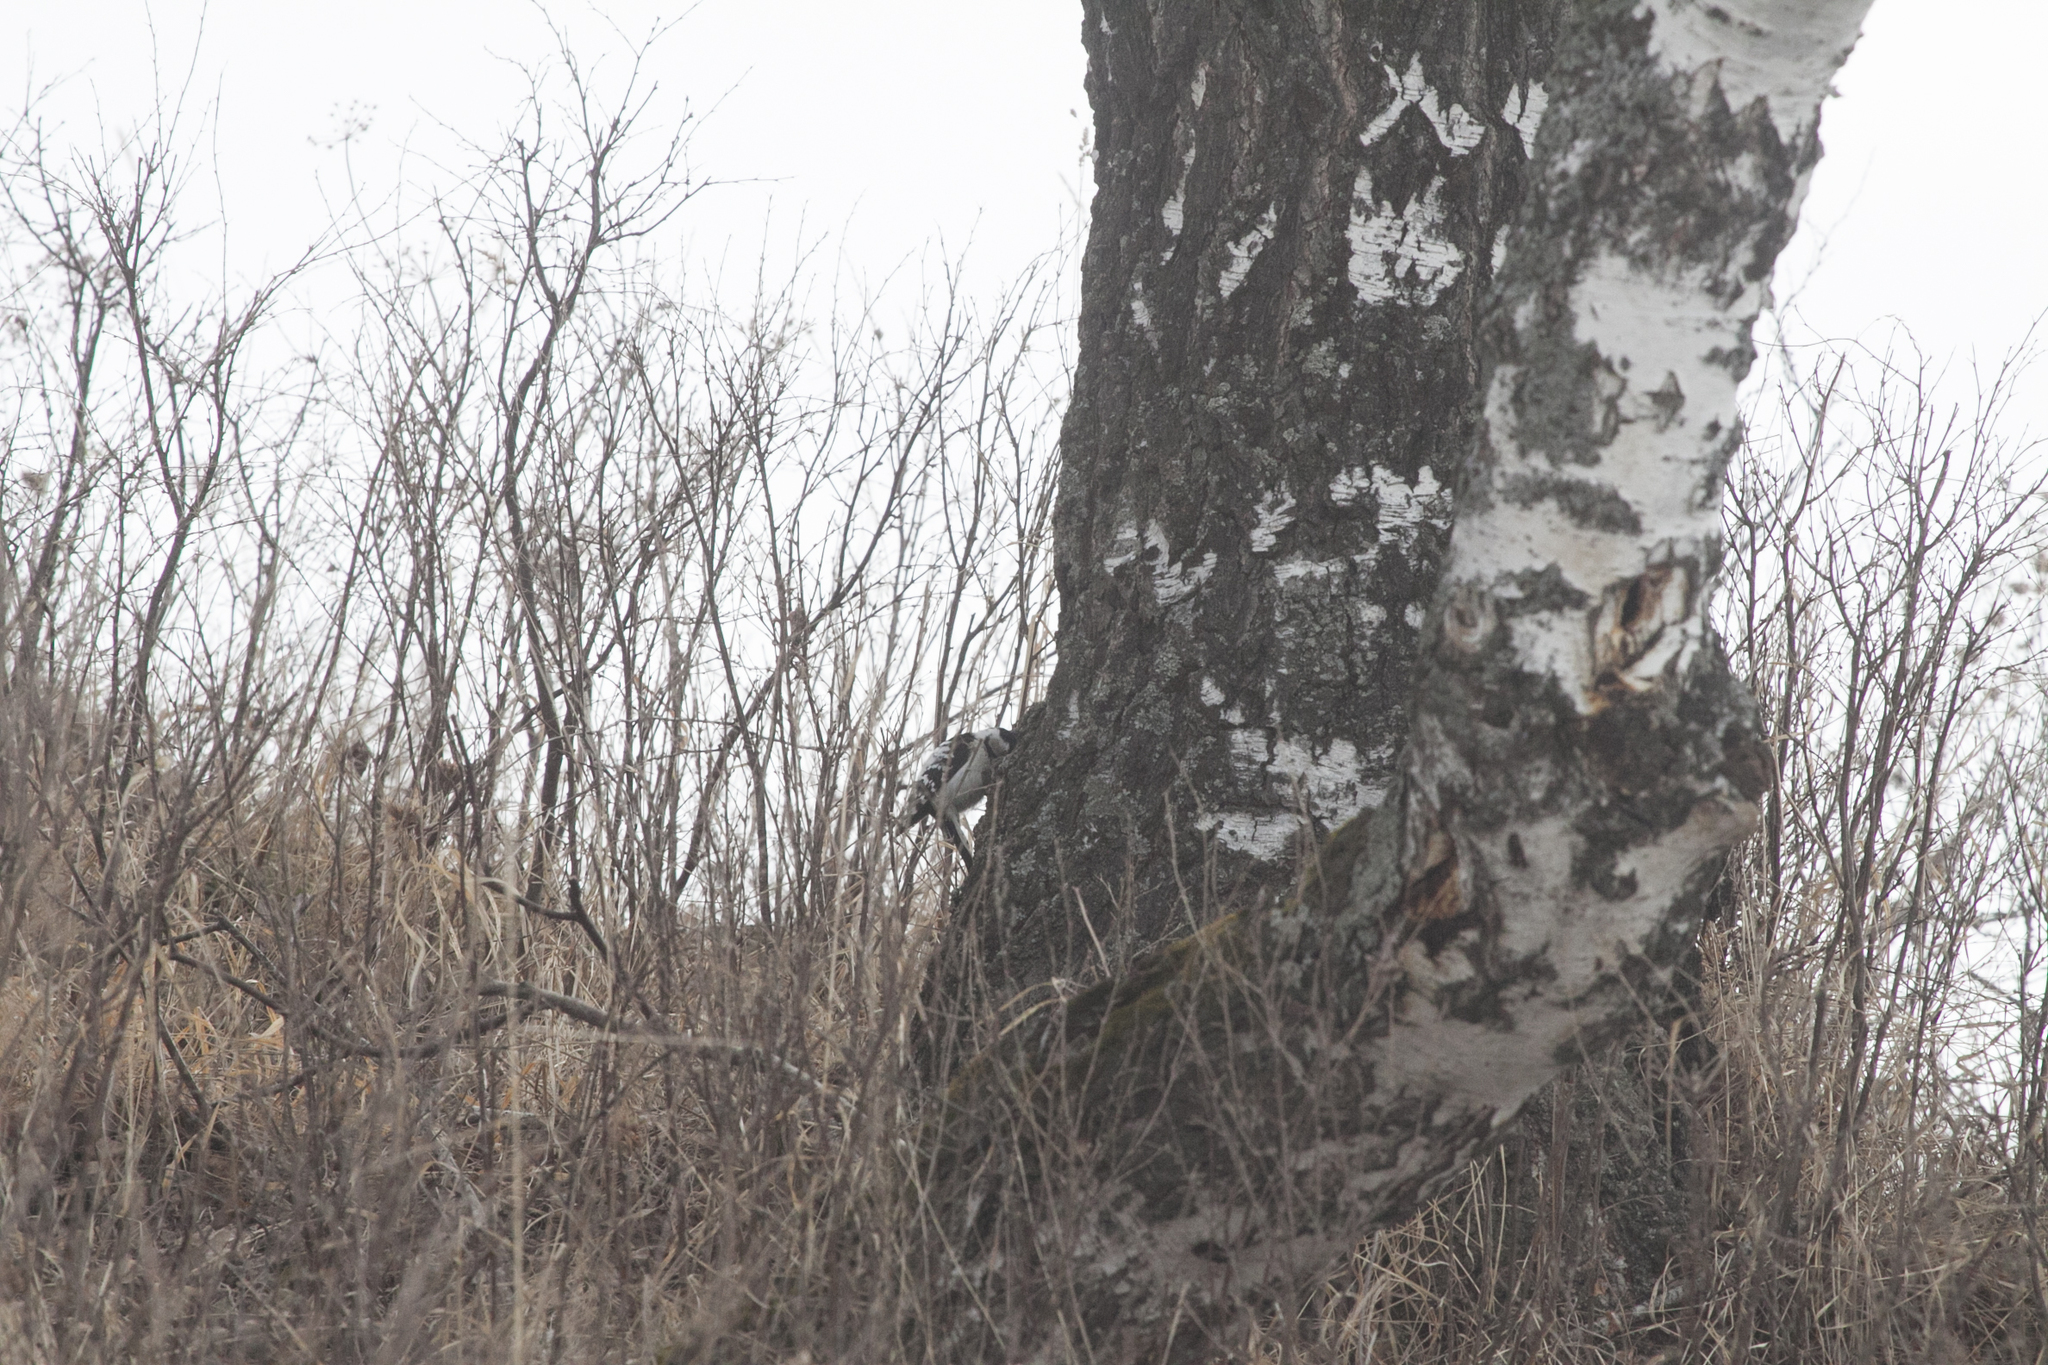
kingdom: Animalia
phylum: Chordata
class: Aves
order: Piciformes
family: Picidae
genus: Dryobates
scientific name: Dryobates minor
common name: Lesser spotted woodpecker
